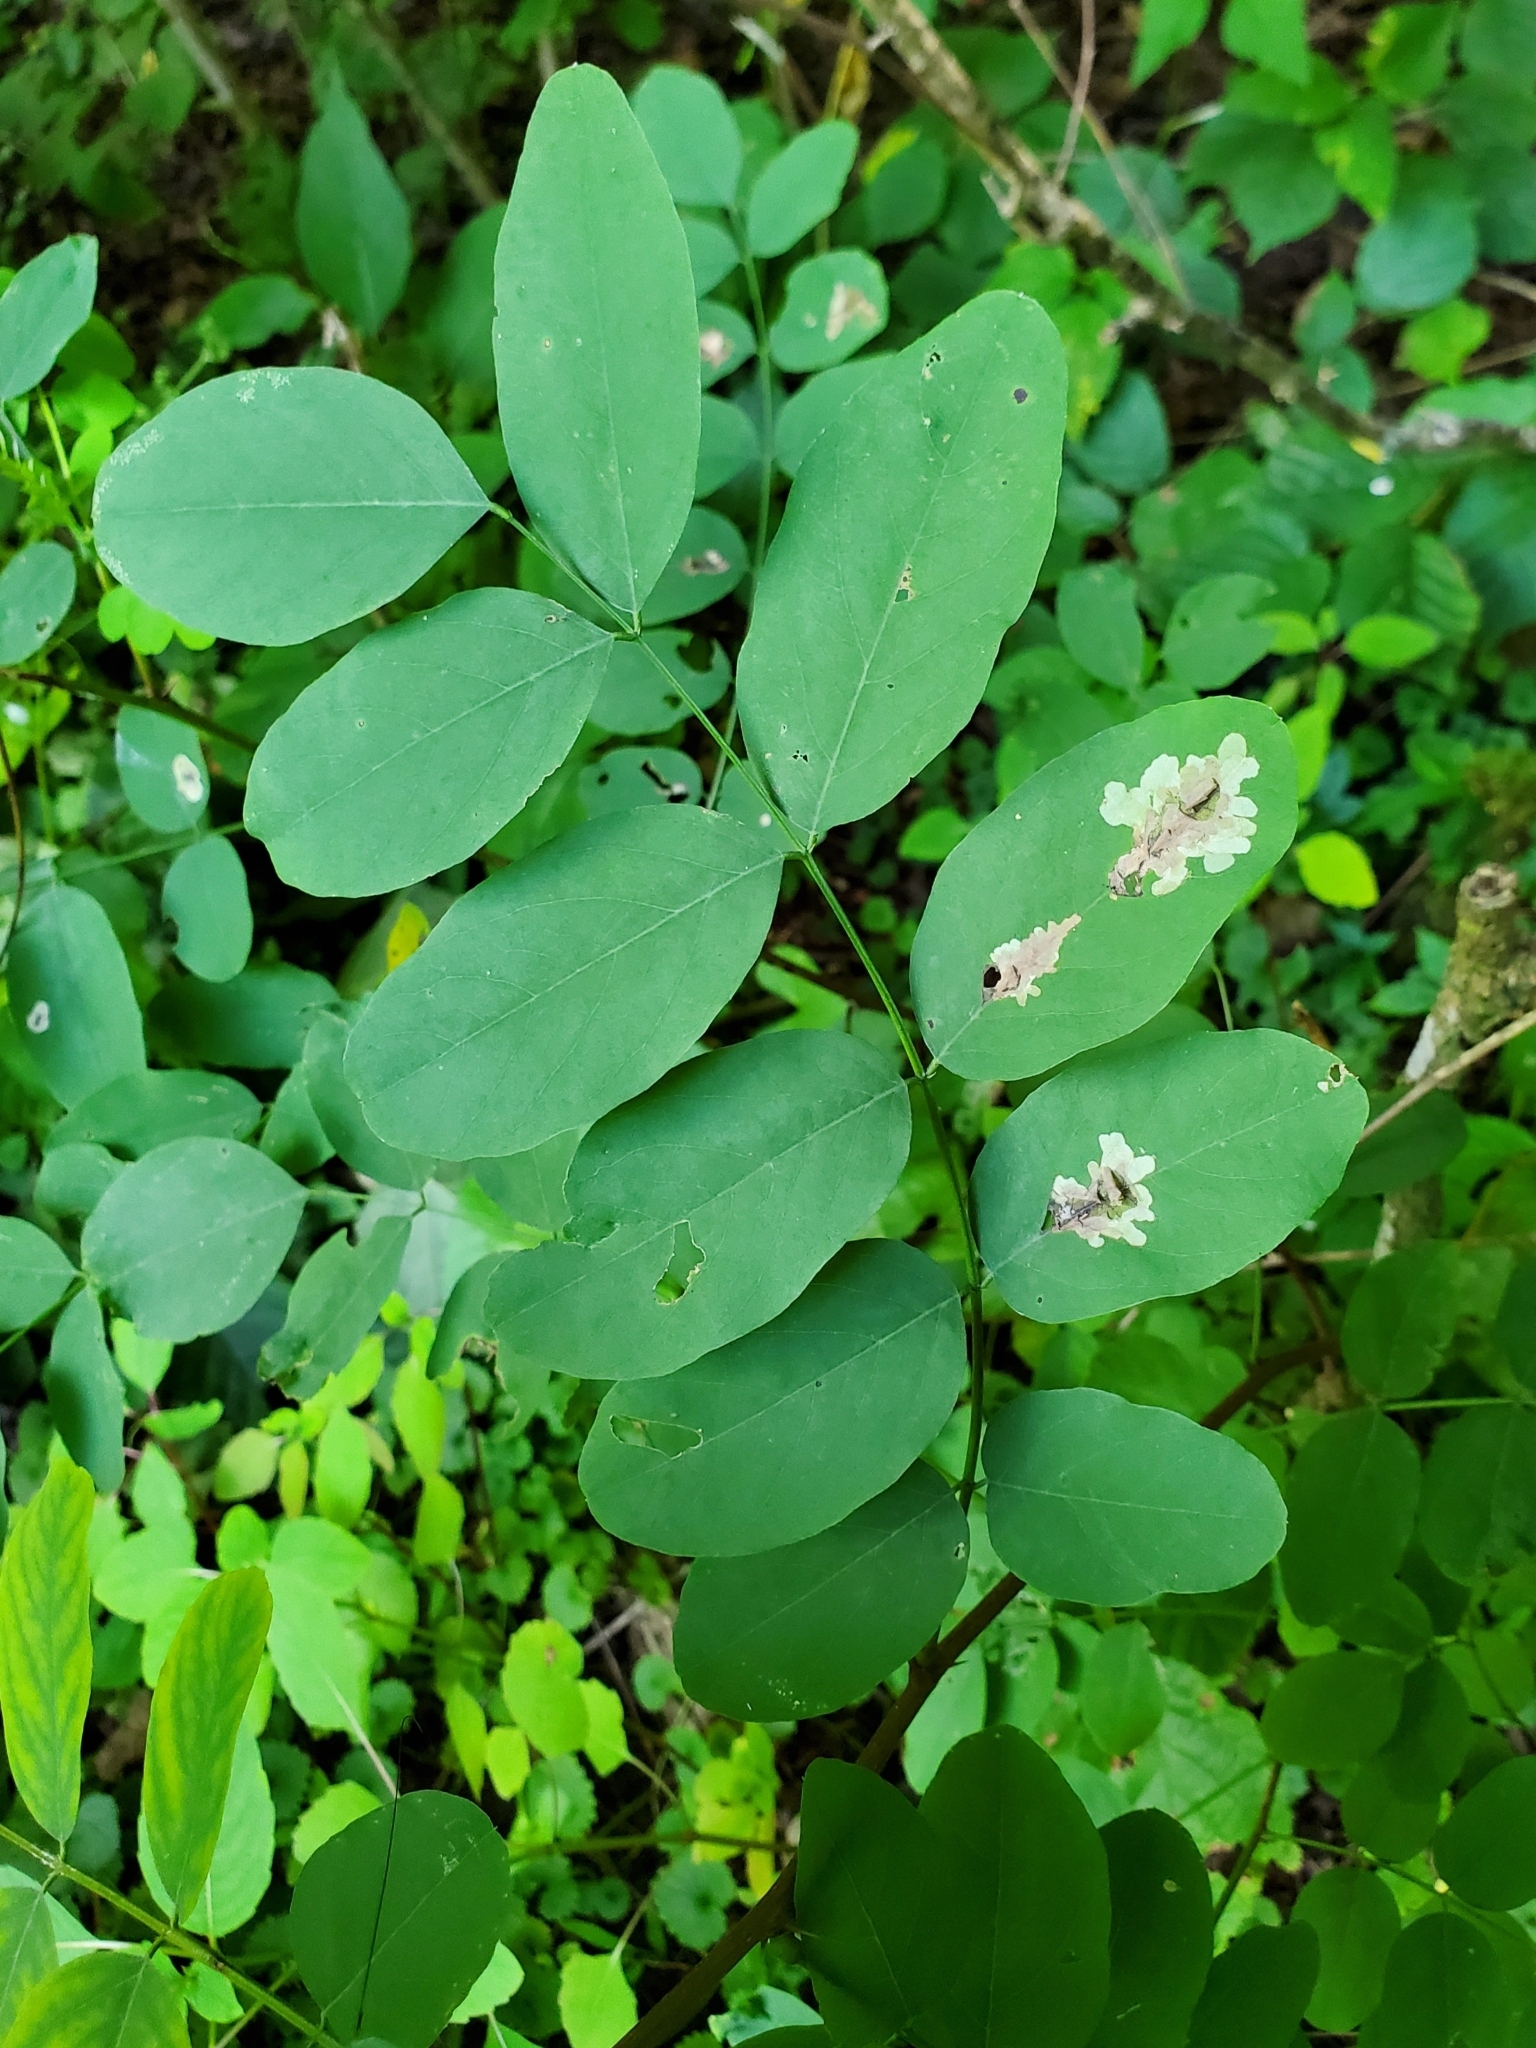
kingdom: Animalia
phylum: Arthropoda
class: Insecta
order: Lepidoptera
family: Gracillariidae
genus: Parectopa
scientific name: Parectopa robiniella
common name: Locust digitate leafminer
